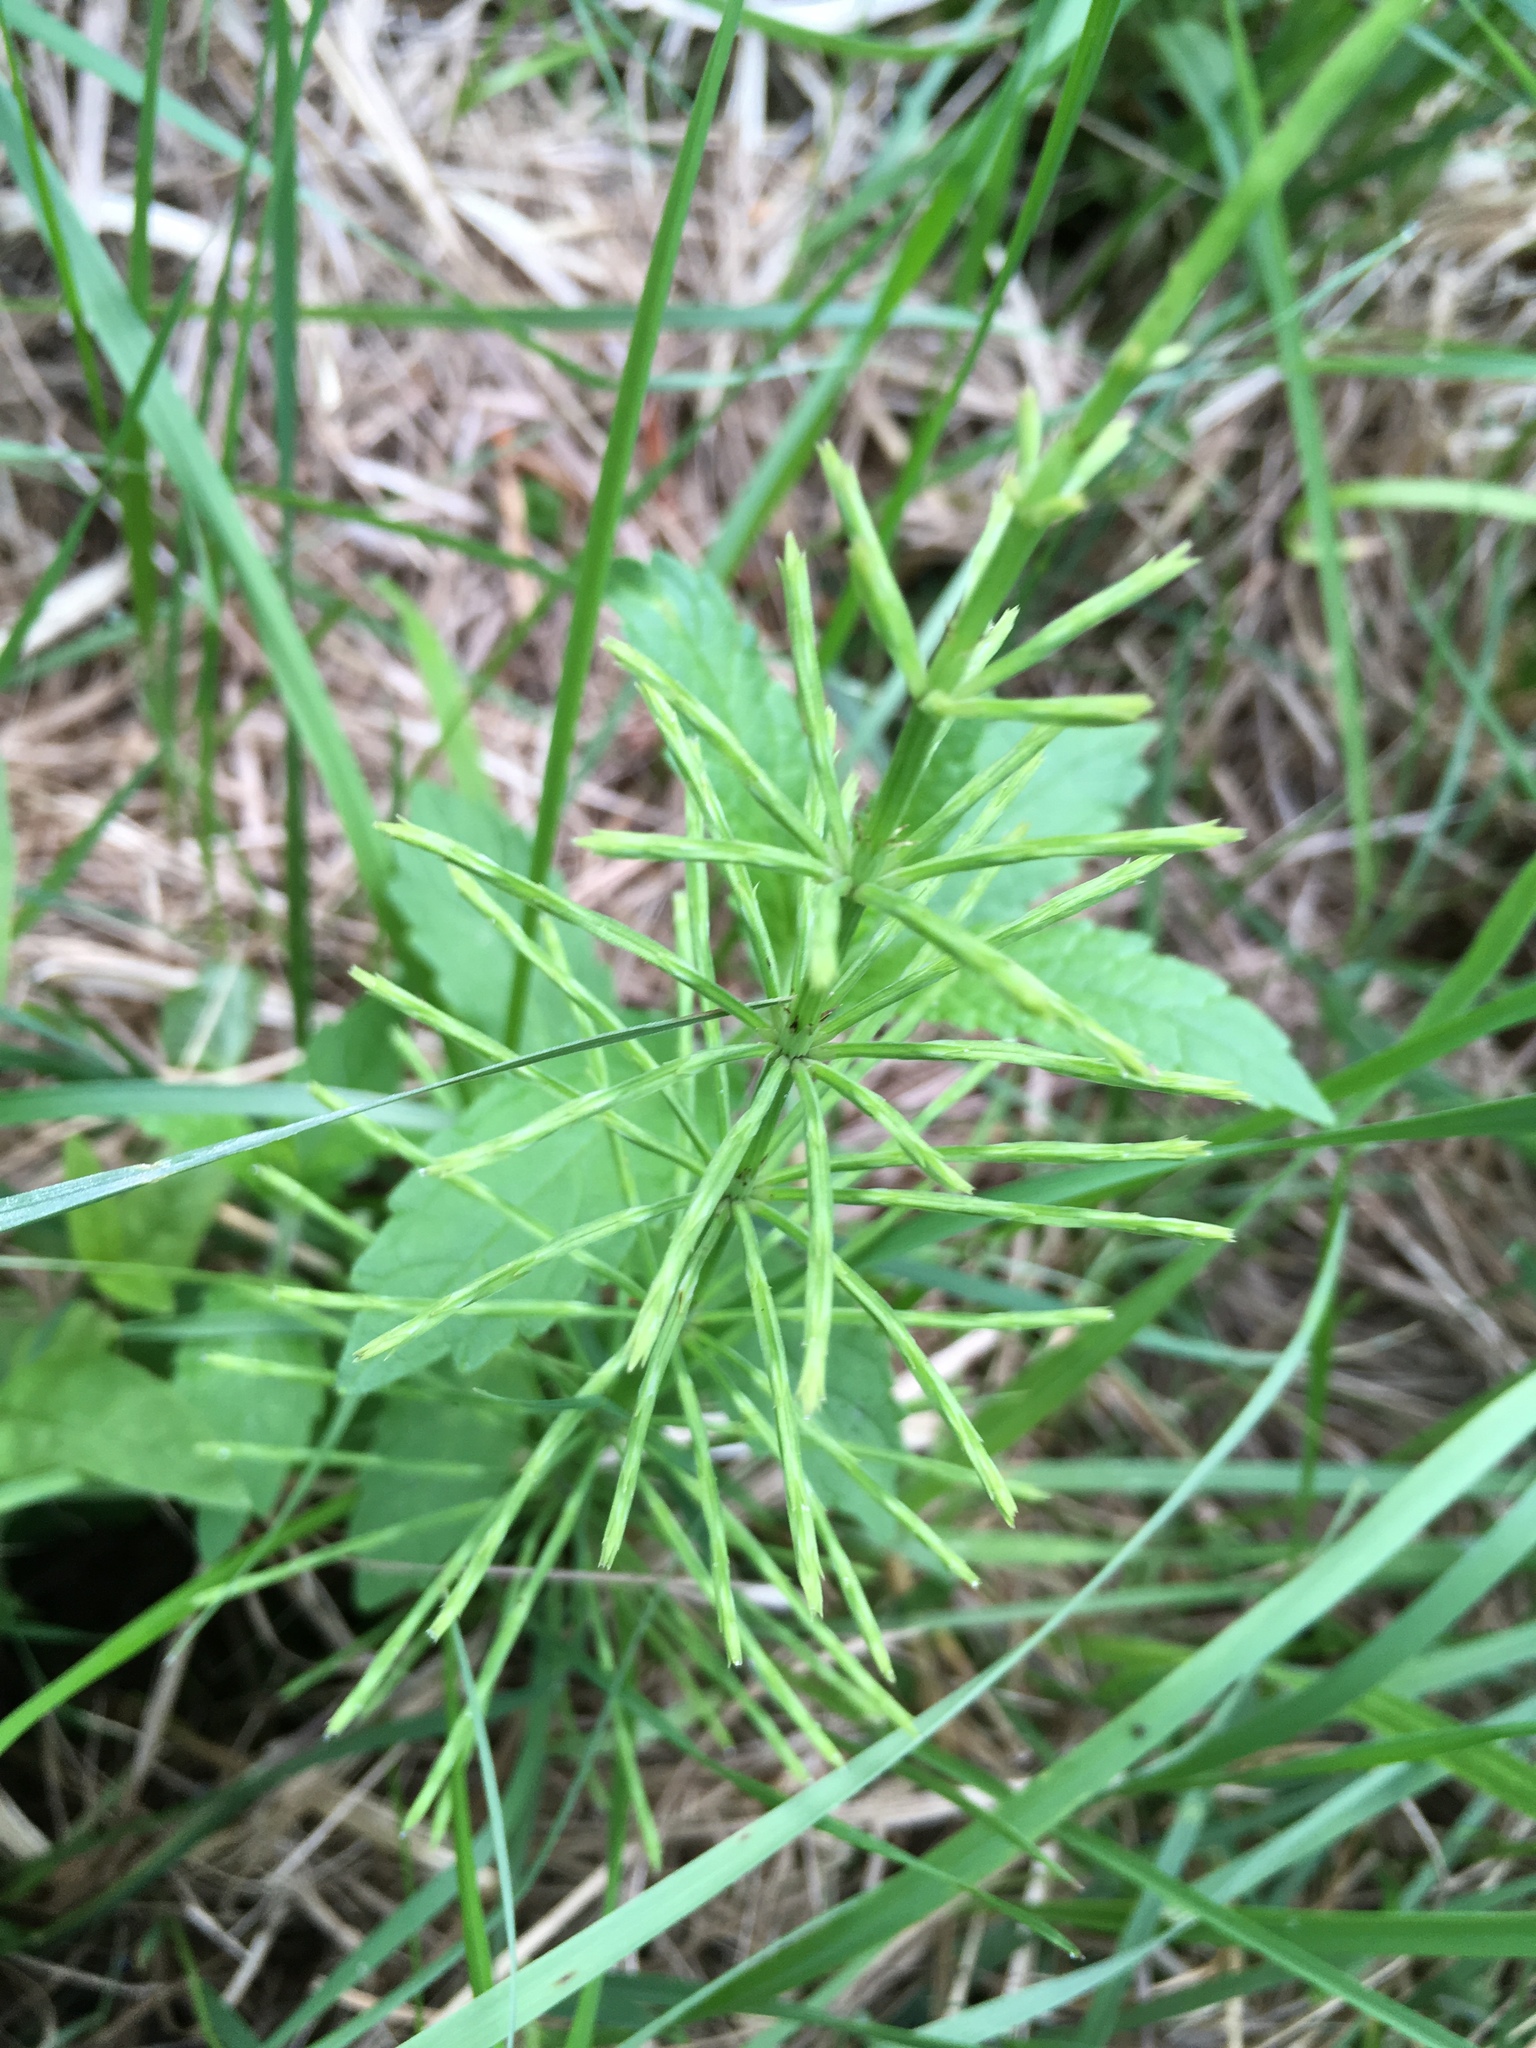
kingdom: Plantae
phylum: Tracheophyta
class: Polypodiopsida
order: Equisetales
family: Equisetaceae
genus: Equisetum
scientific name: Equisetum arvense
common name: Field horsetail
